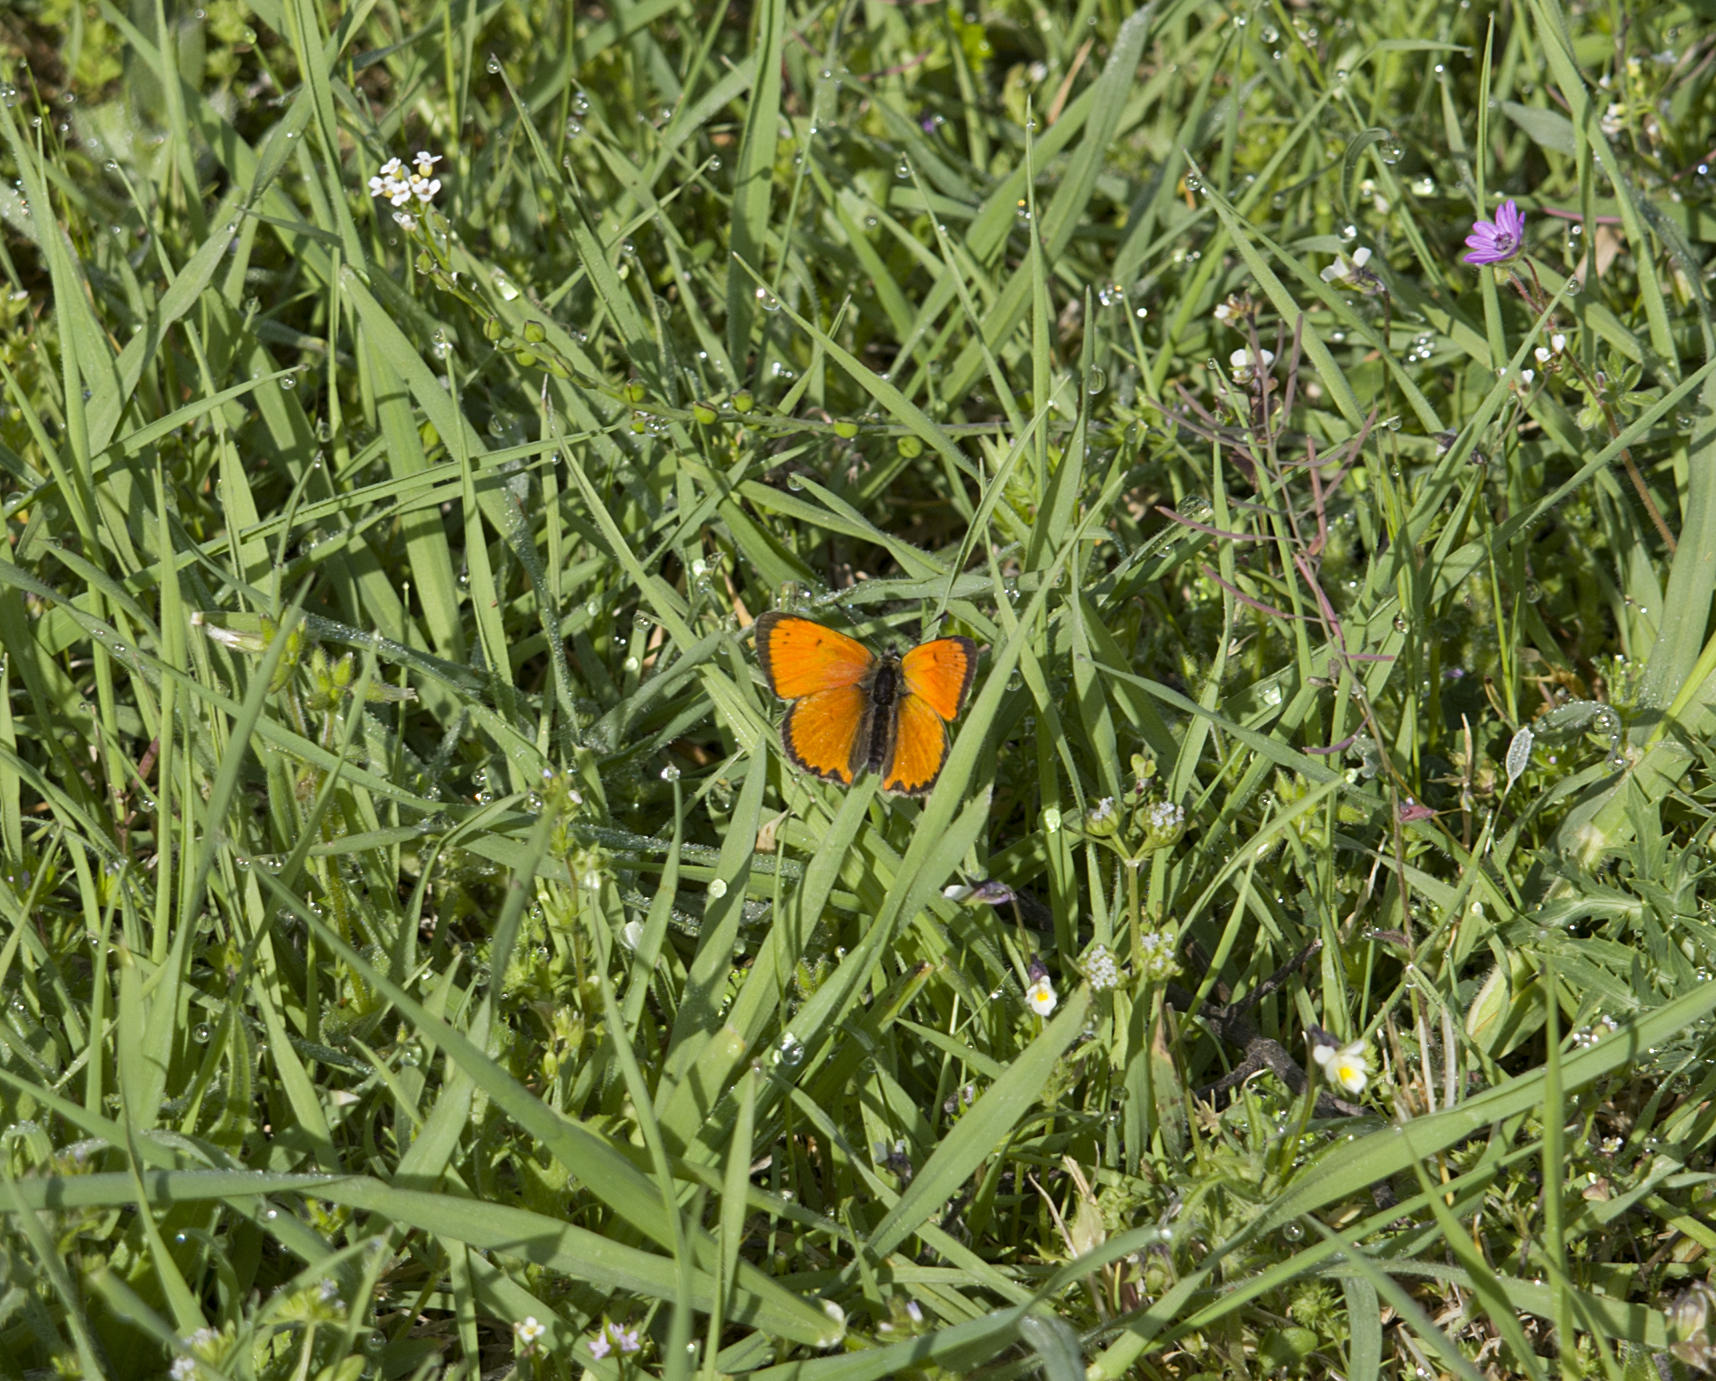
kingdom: Animalia
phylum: Arthropoda
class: Insecta
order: Lepidoptera
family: Lycaenidae
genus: Polyommatus
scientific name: Polyommatus ottomanus
